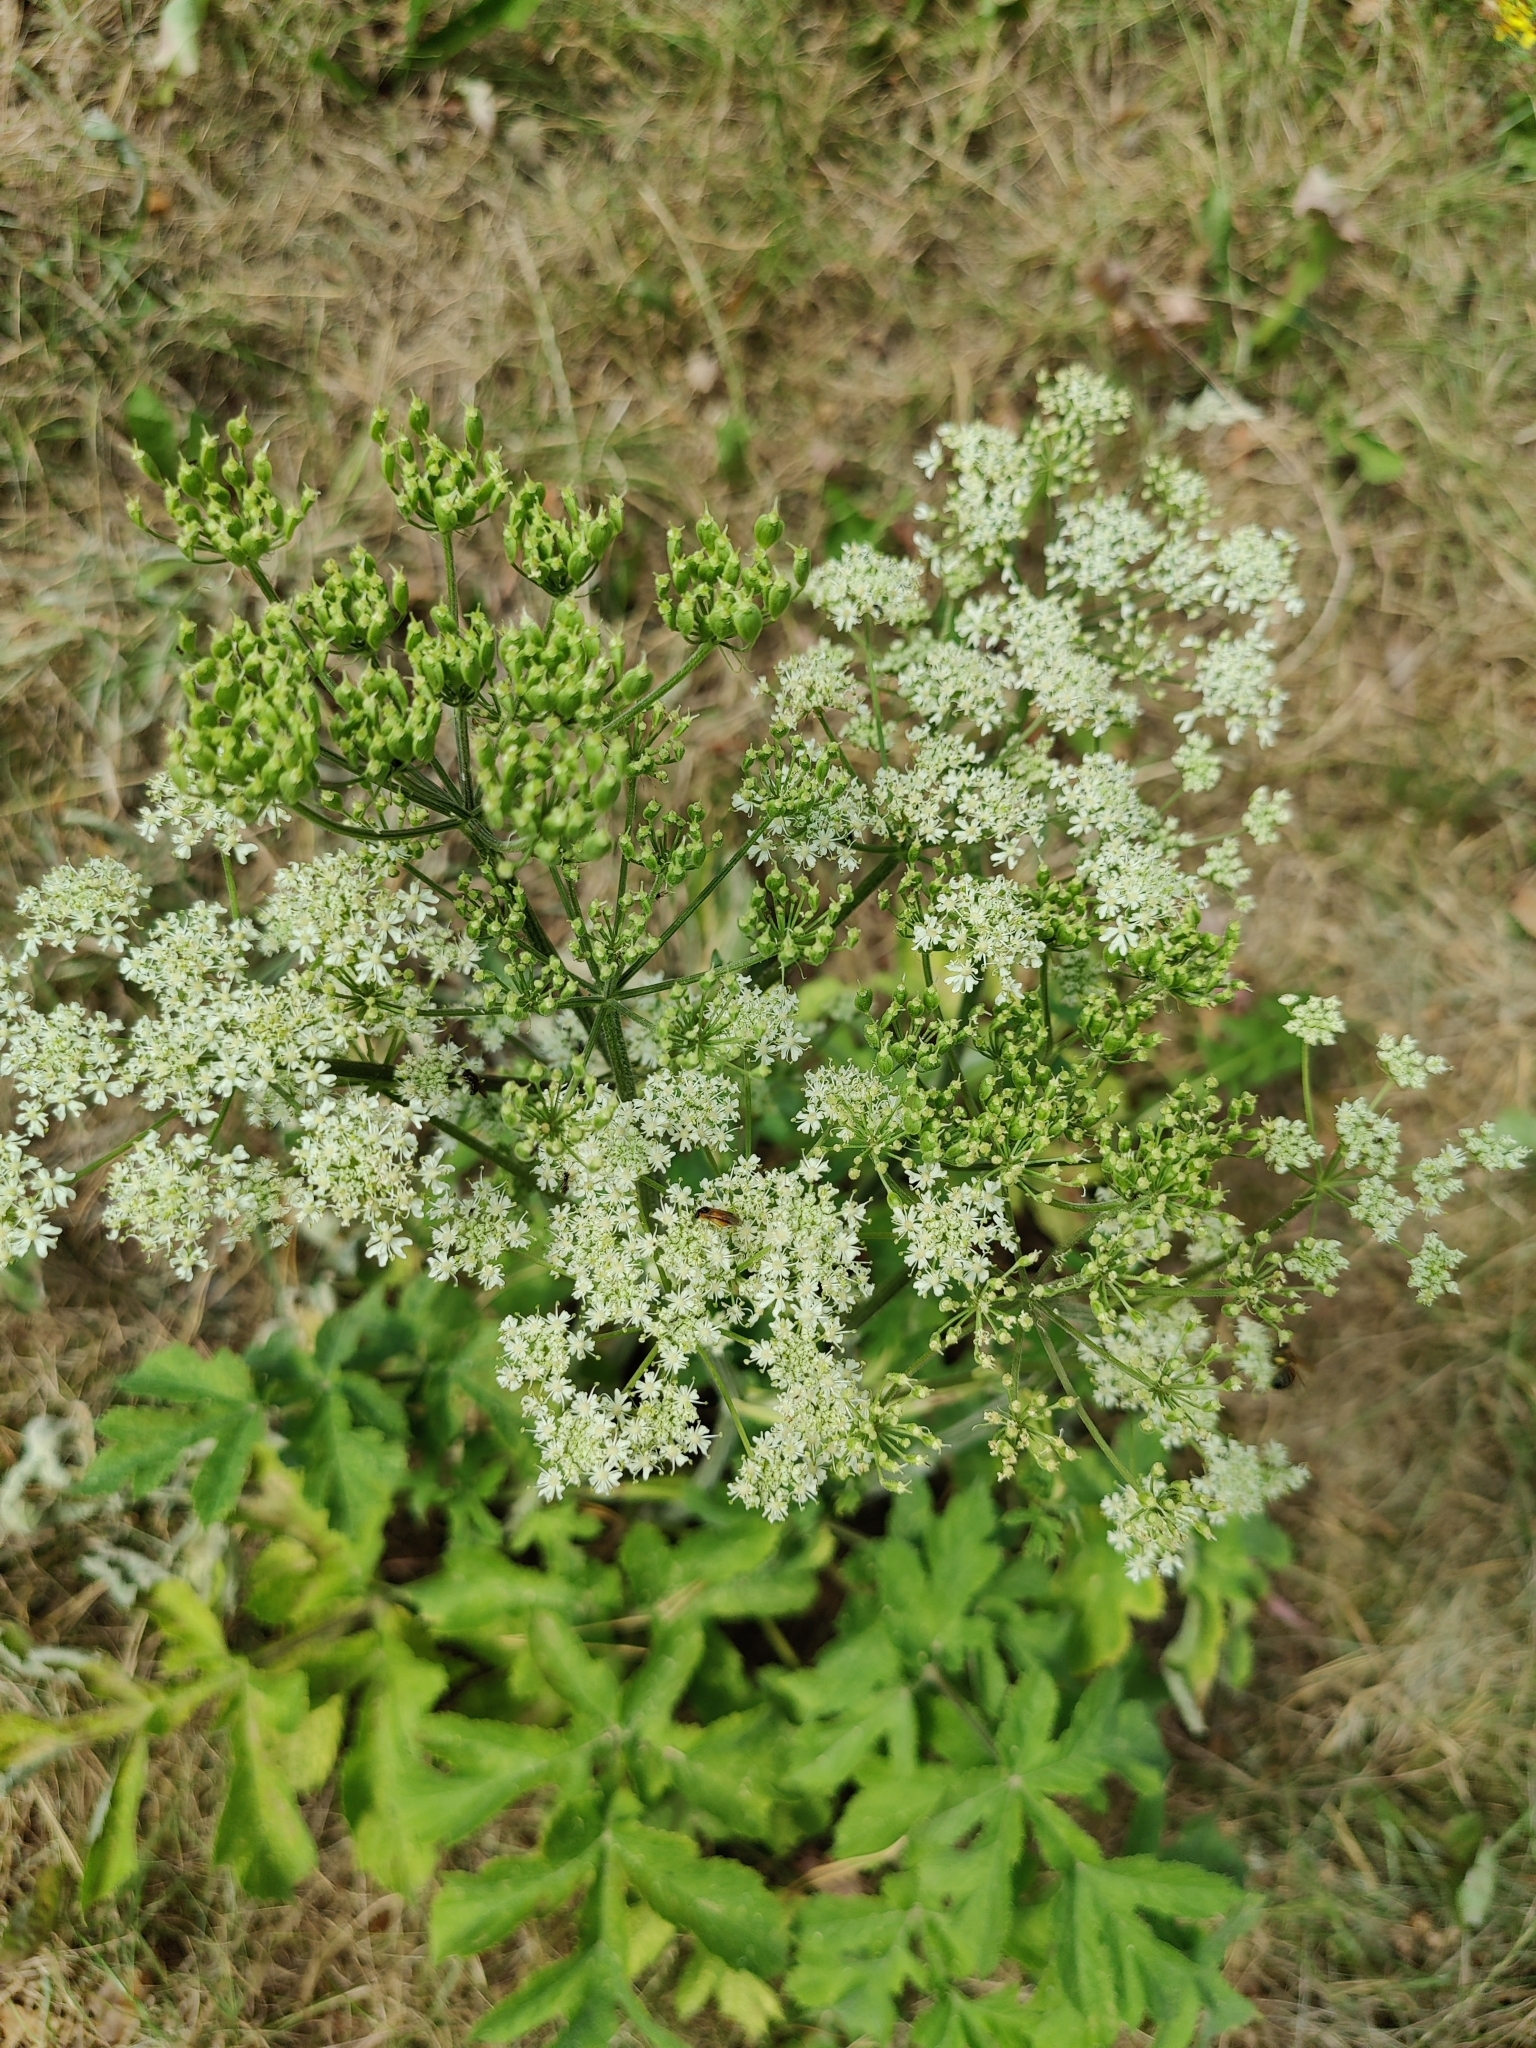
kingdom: Plantae
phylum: Tracheophyta
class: Magnoliopsida
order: Apiales
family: Apiaceae
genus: Heracleum
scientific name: Heracleum sphondylium
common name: Hogweed
